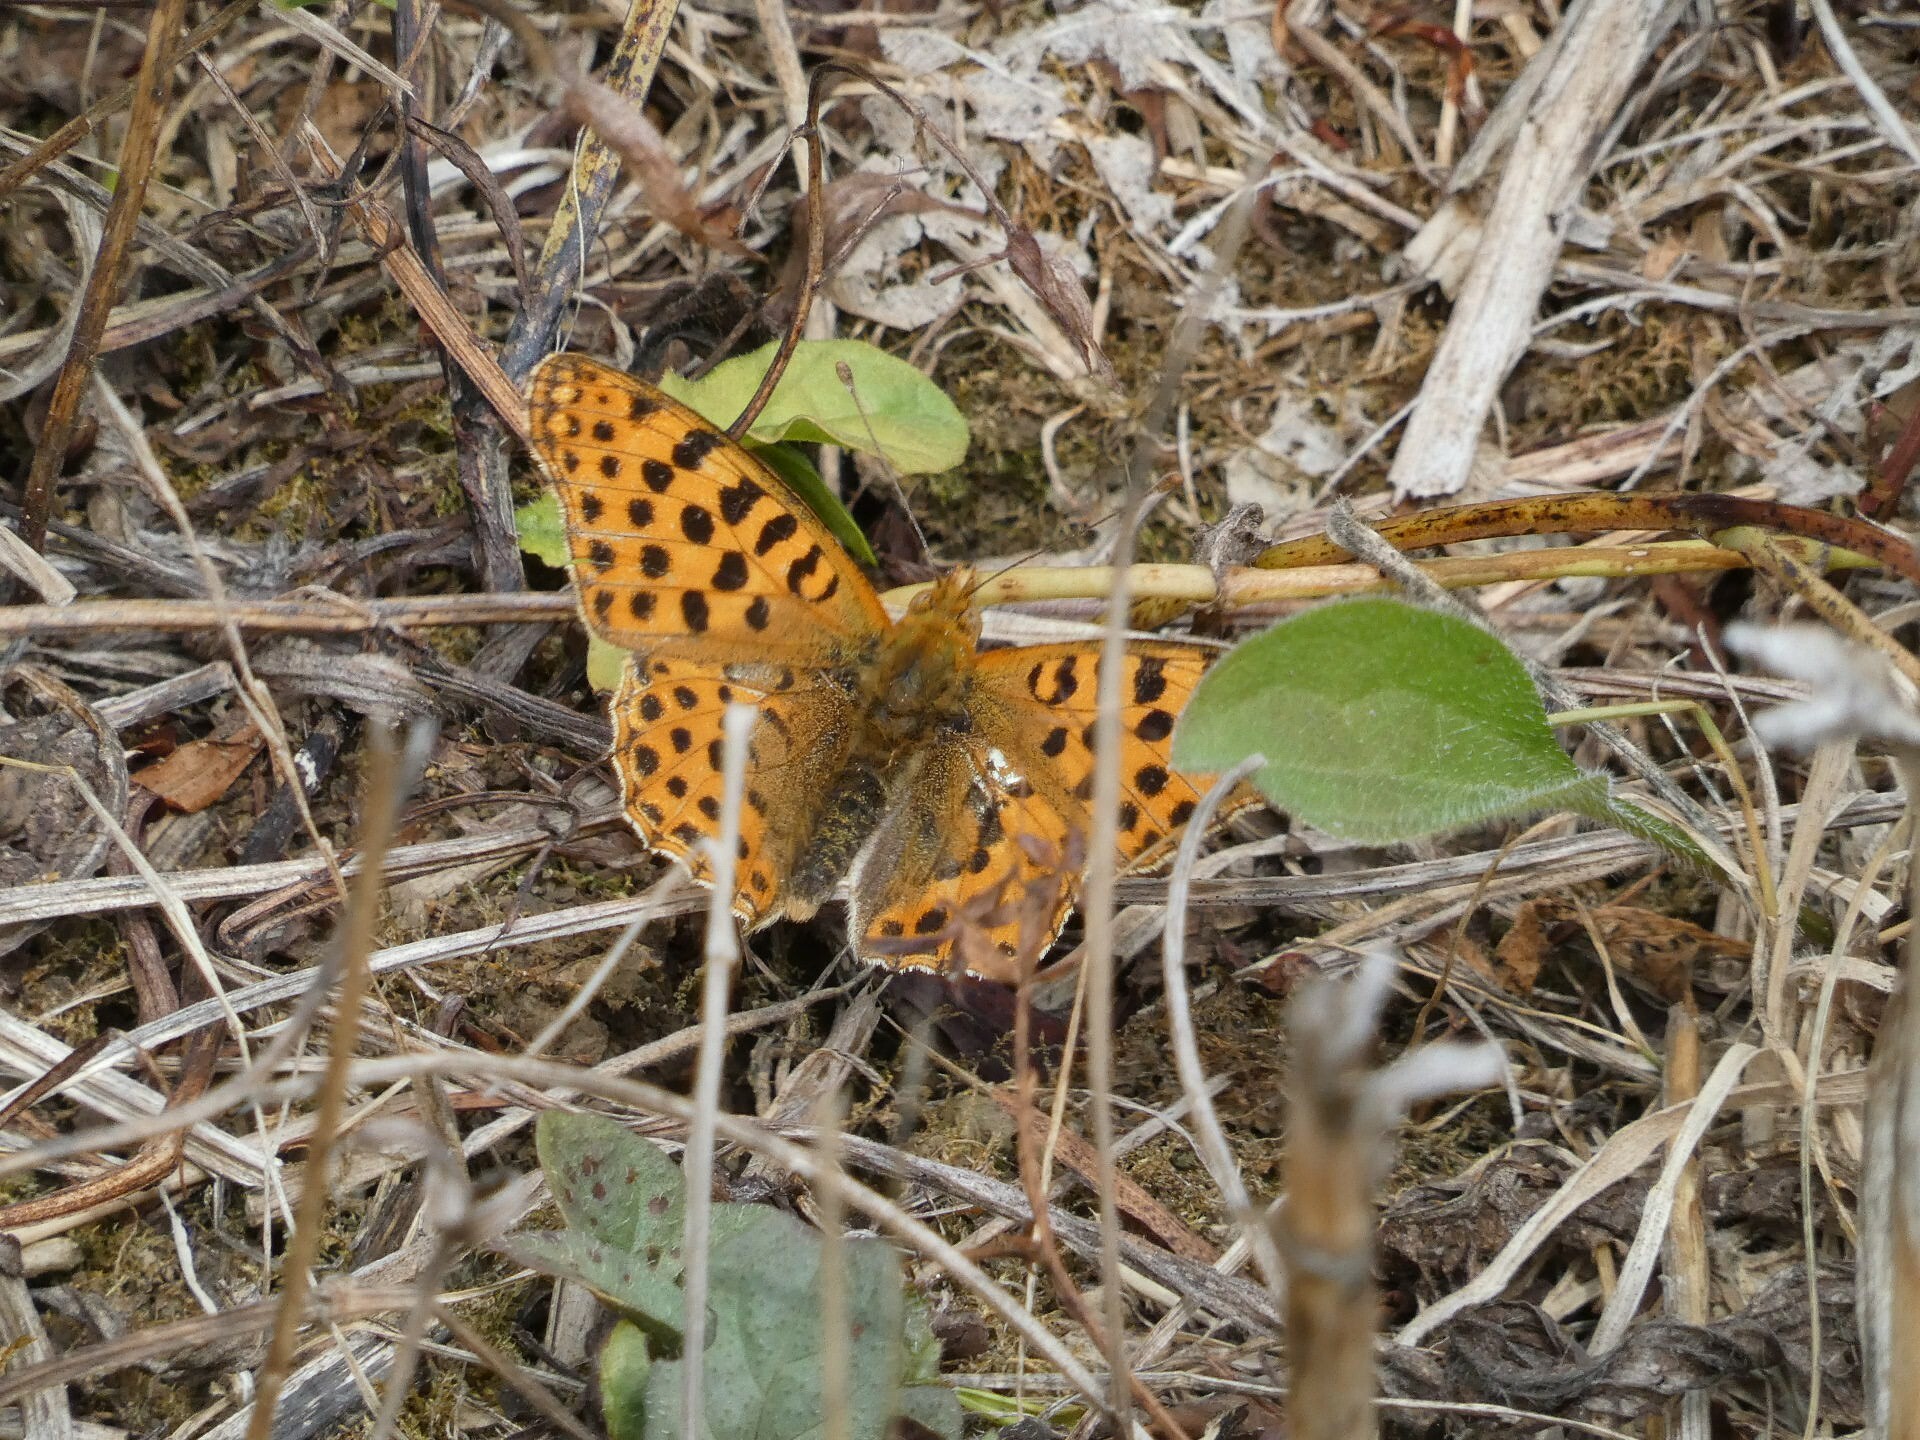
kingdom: Animalia
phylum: Arthropoda
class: Insecta
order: Lepidoptera
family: Nymphalidae
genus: Issoria
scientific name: Issoria lathonia
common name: Queen of spain fritillary
